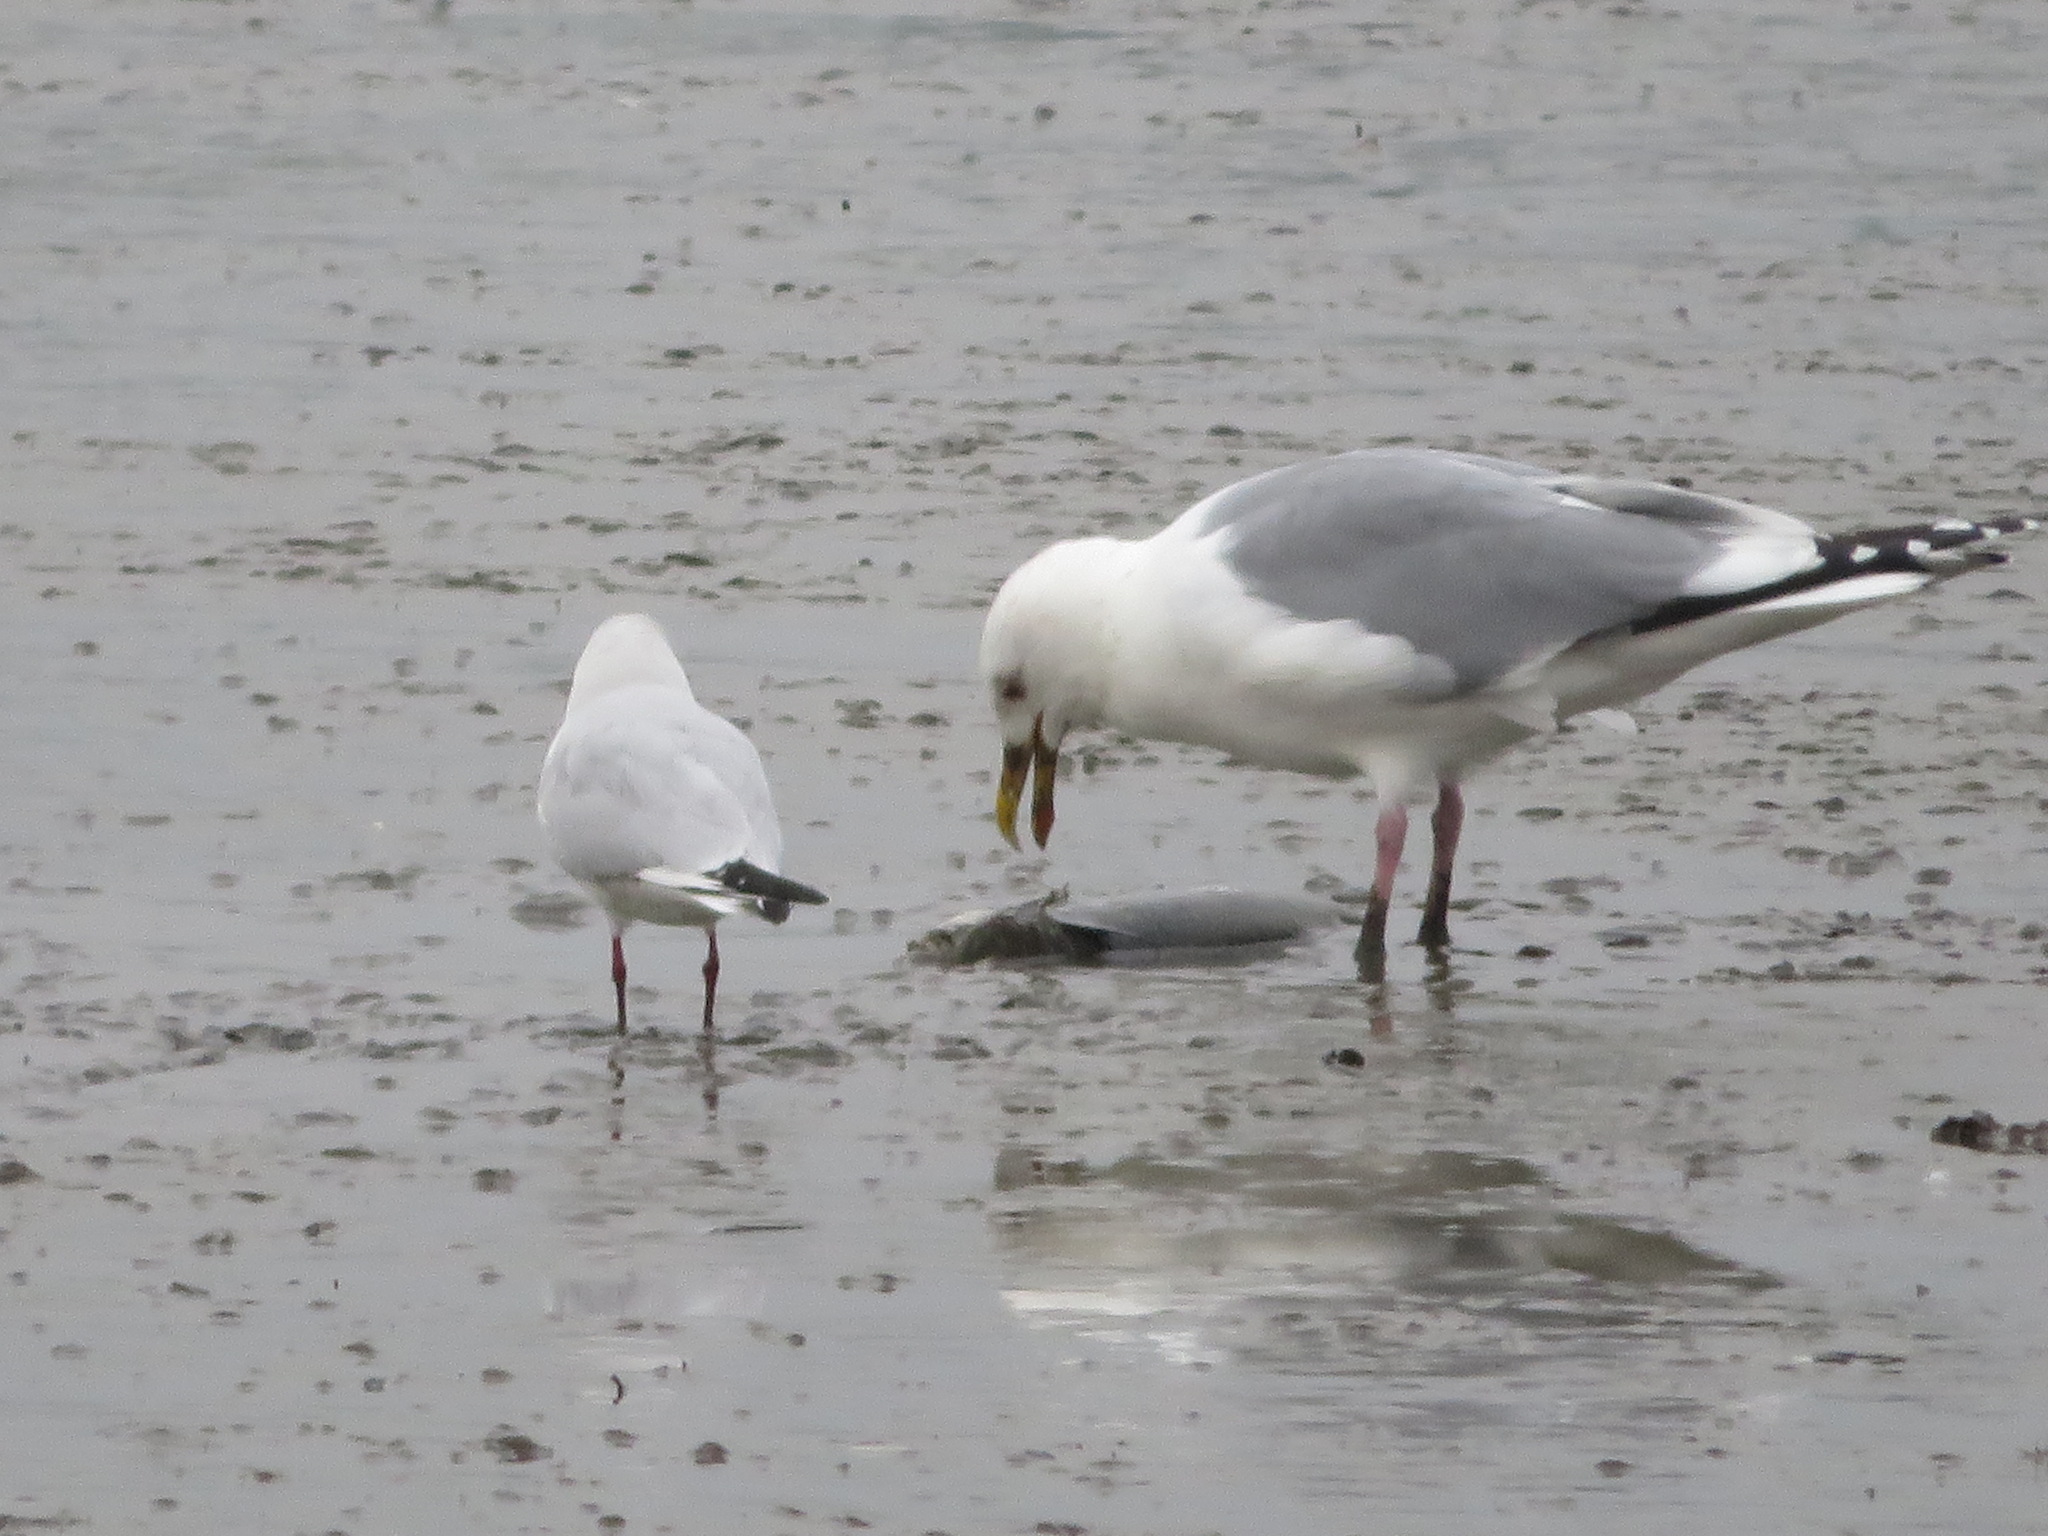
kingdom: Animalia
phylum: Chordata
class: Aves
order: Charadriiformes
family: Laridae
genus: Larus
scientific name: Larus vegae
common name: Vega gull
